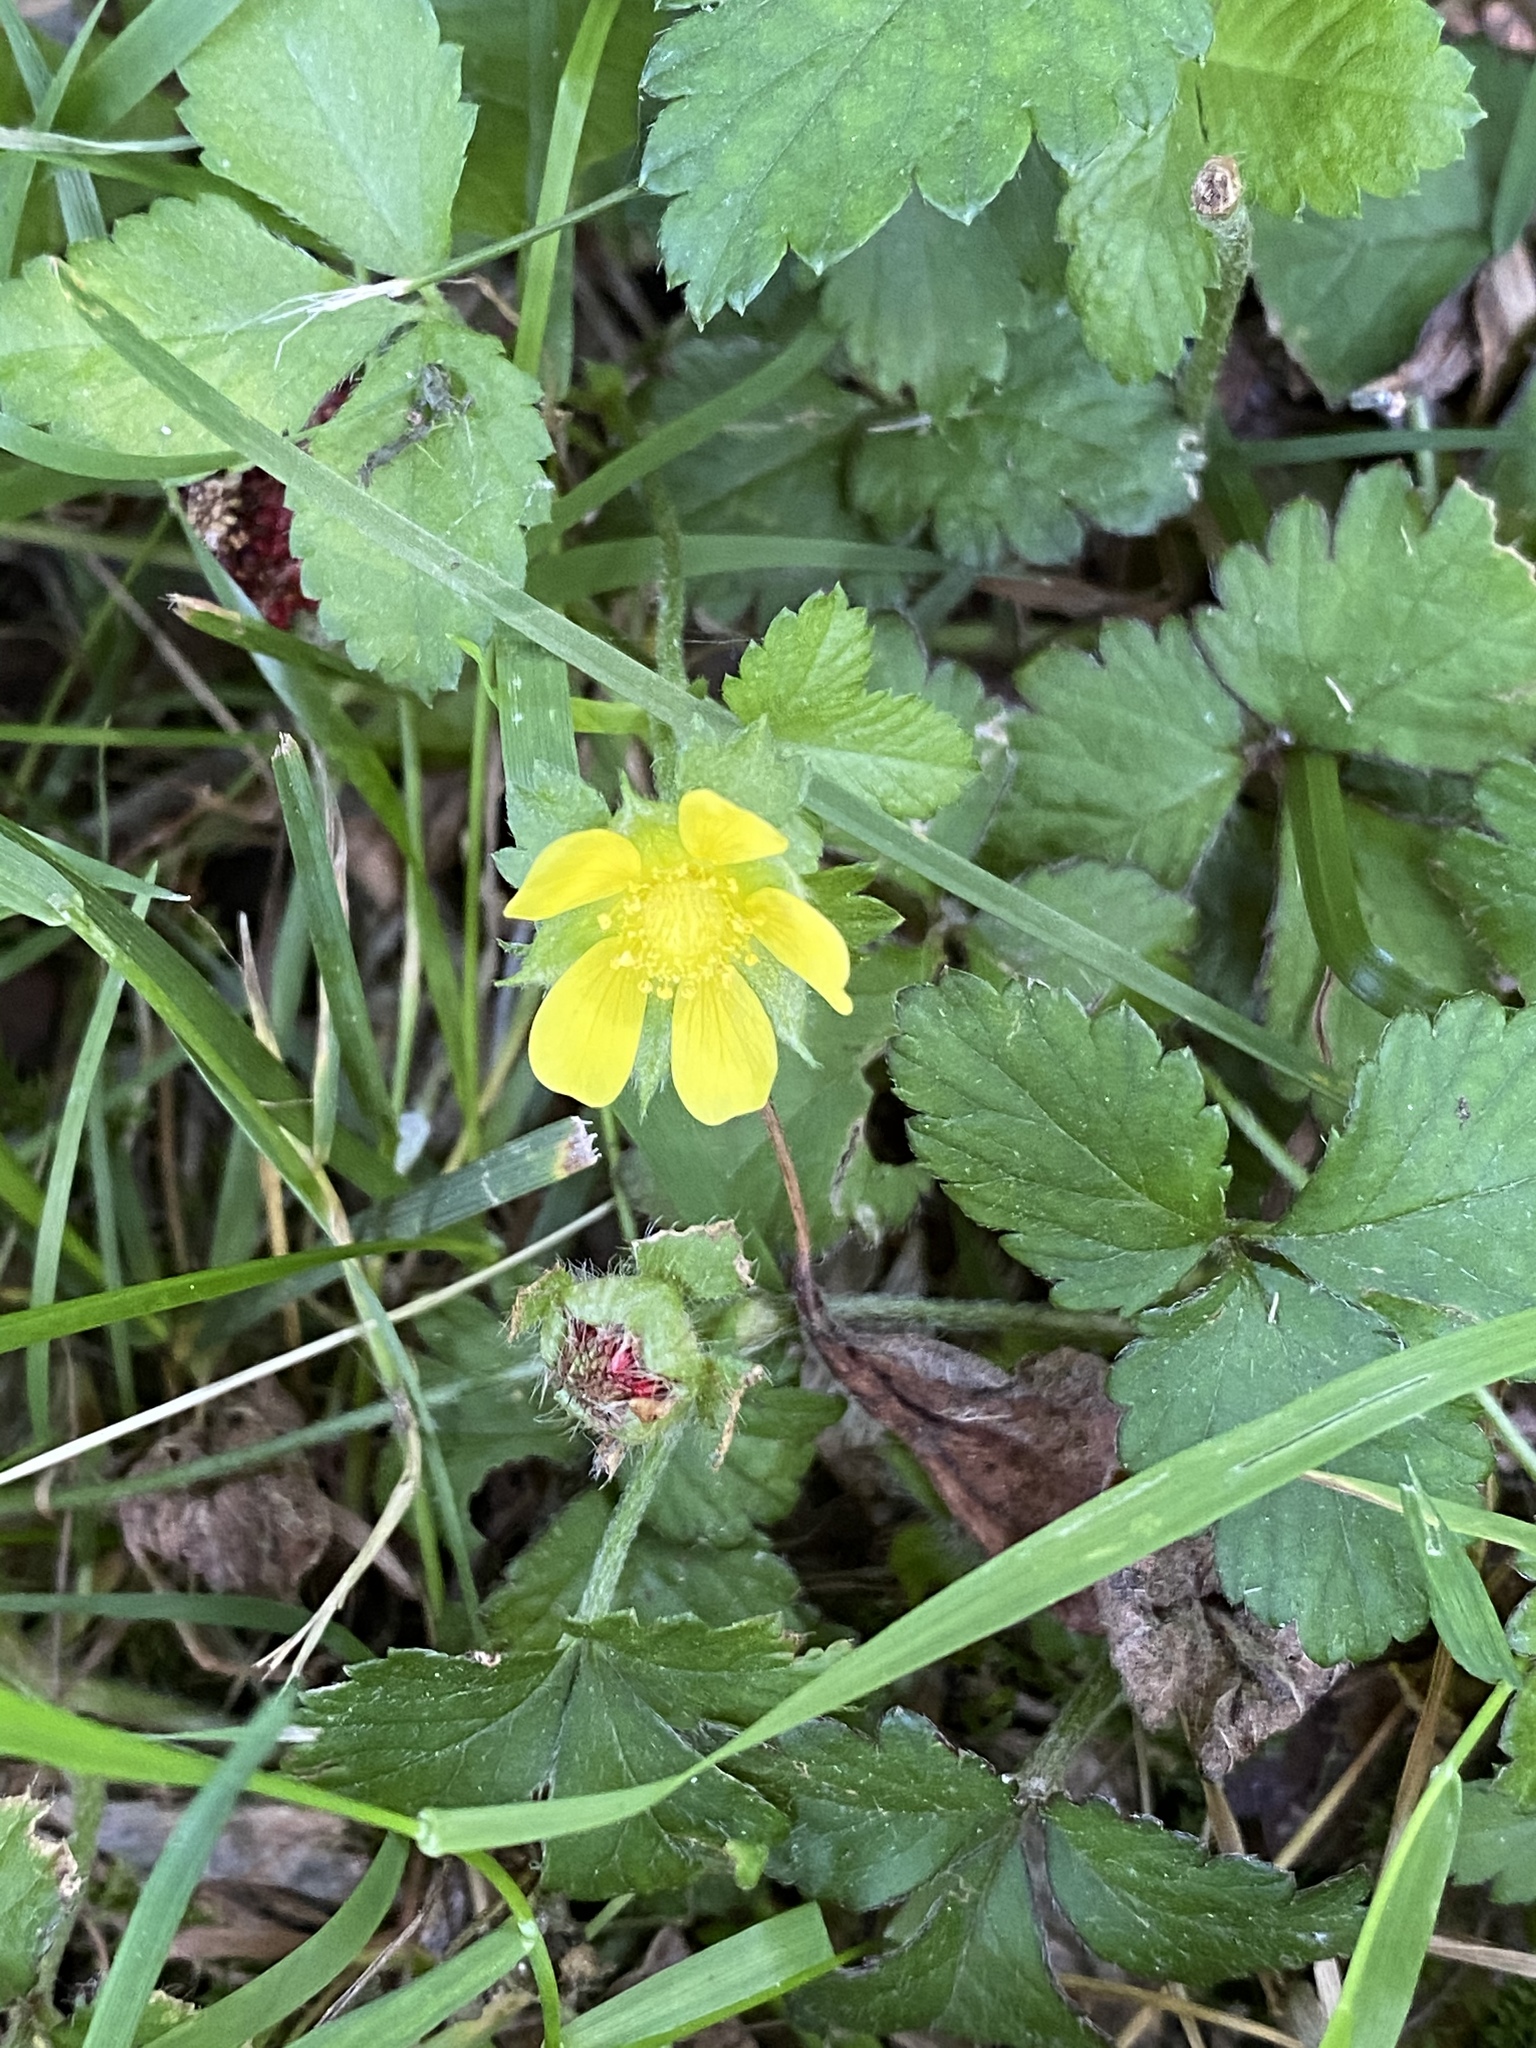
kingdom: Plantae
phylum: Tracheophyta
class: Magnoliopsida
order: Rosales
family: Rosaceae
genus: Potentilla
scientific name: Potentilla indica
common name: Yellow-flowered strawberry
